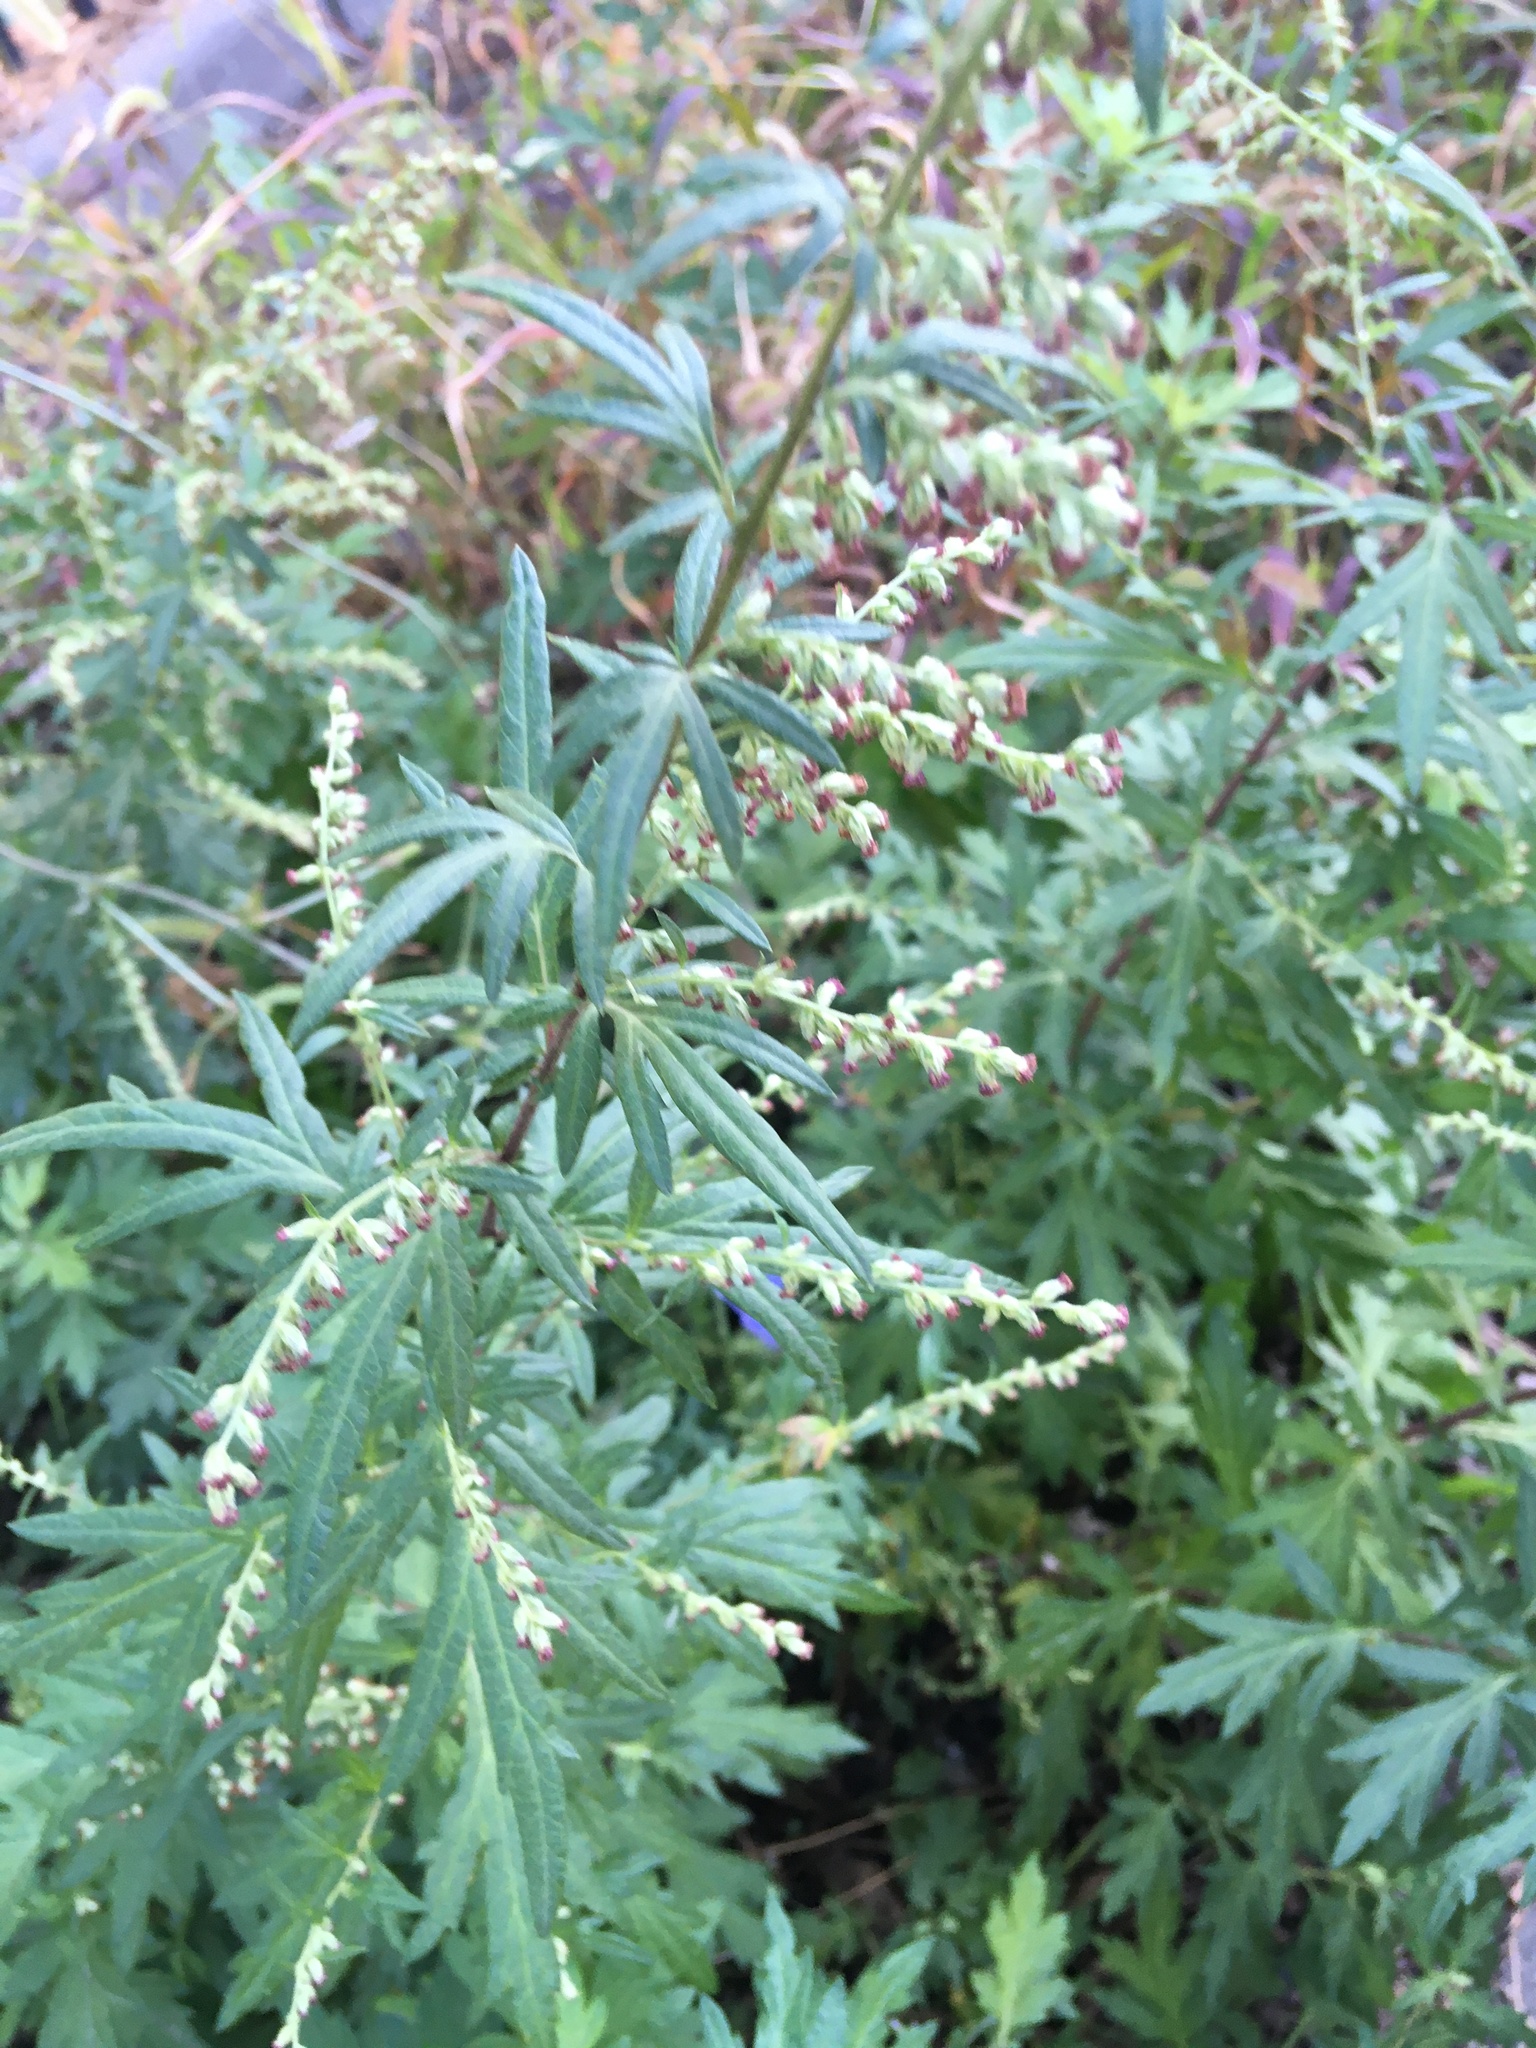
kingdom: Plantae
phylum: Tracheophyta
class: Magnoliopsida
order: Asterales
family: Asteraceae
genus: Artemisia
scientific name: Artemisia vulgaris
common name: Mugwort
